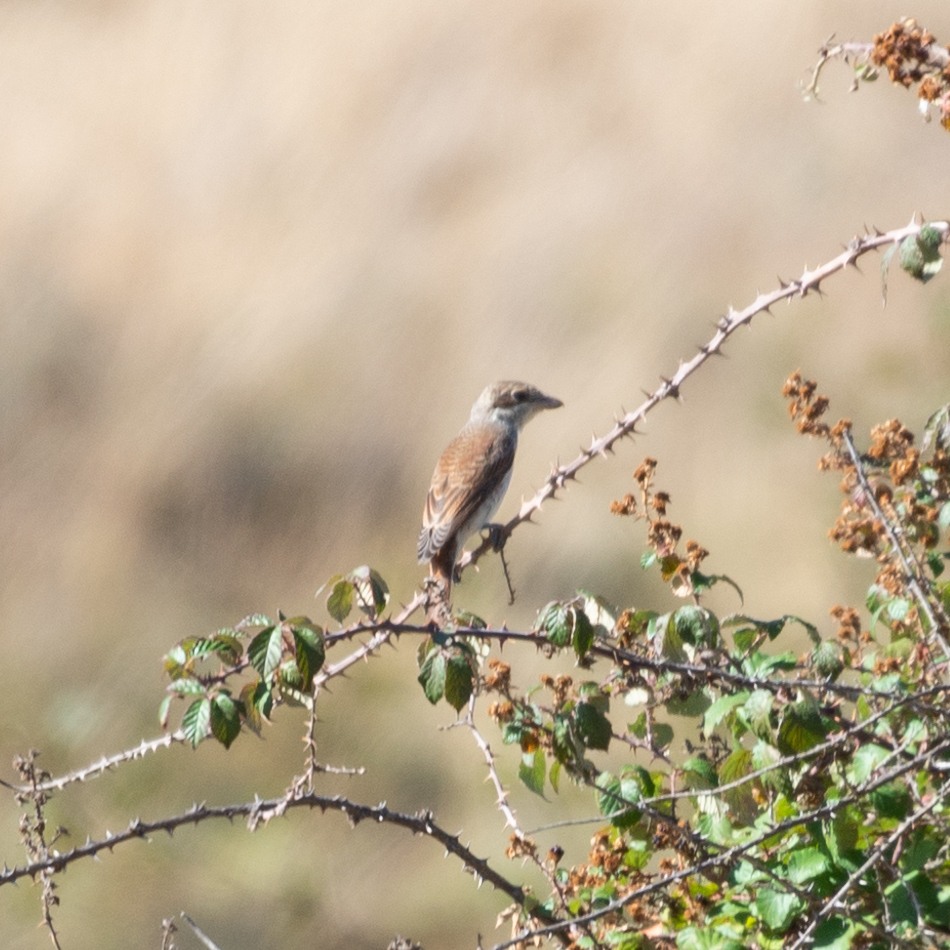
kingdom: Animalia
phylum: Chordata
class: Aves
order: Passeriformes
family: Laniidae
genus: Lanius
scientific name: Lanius collurio
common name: Red-backed shrike
